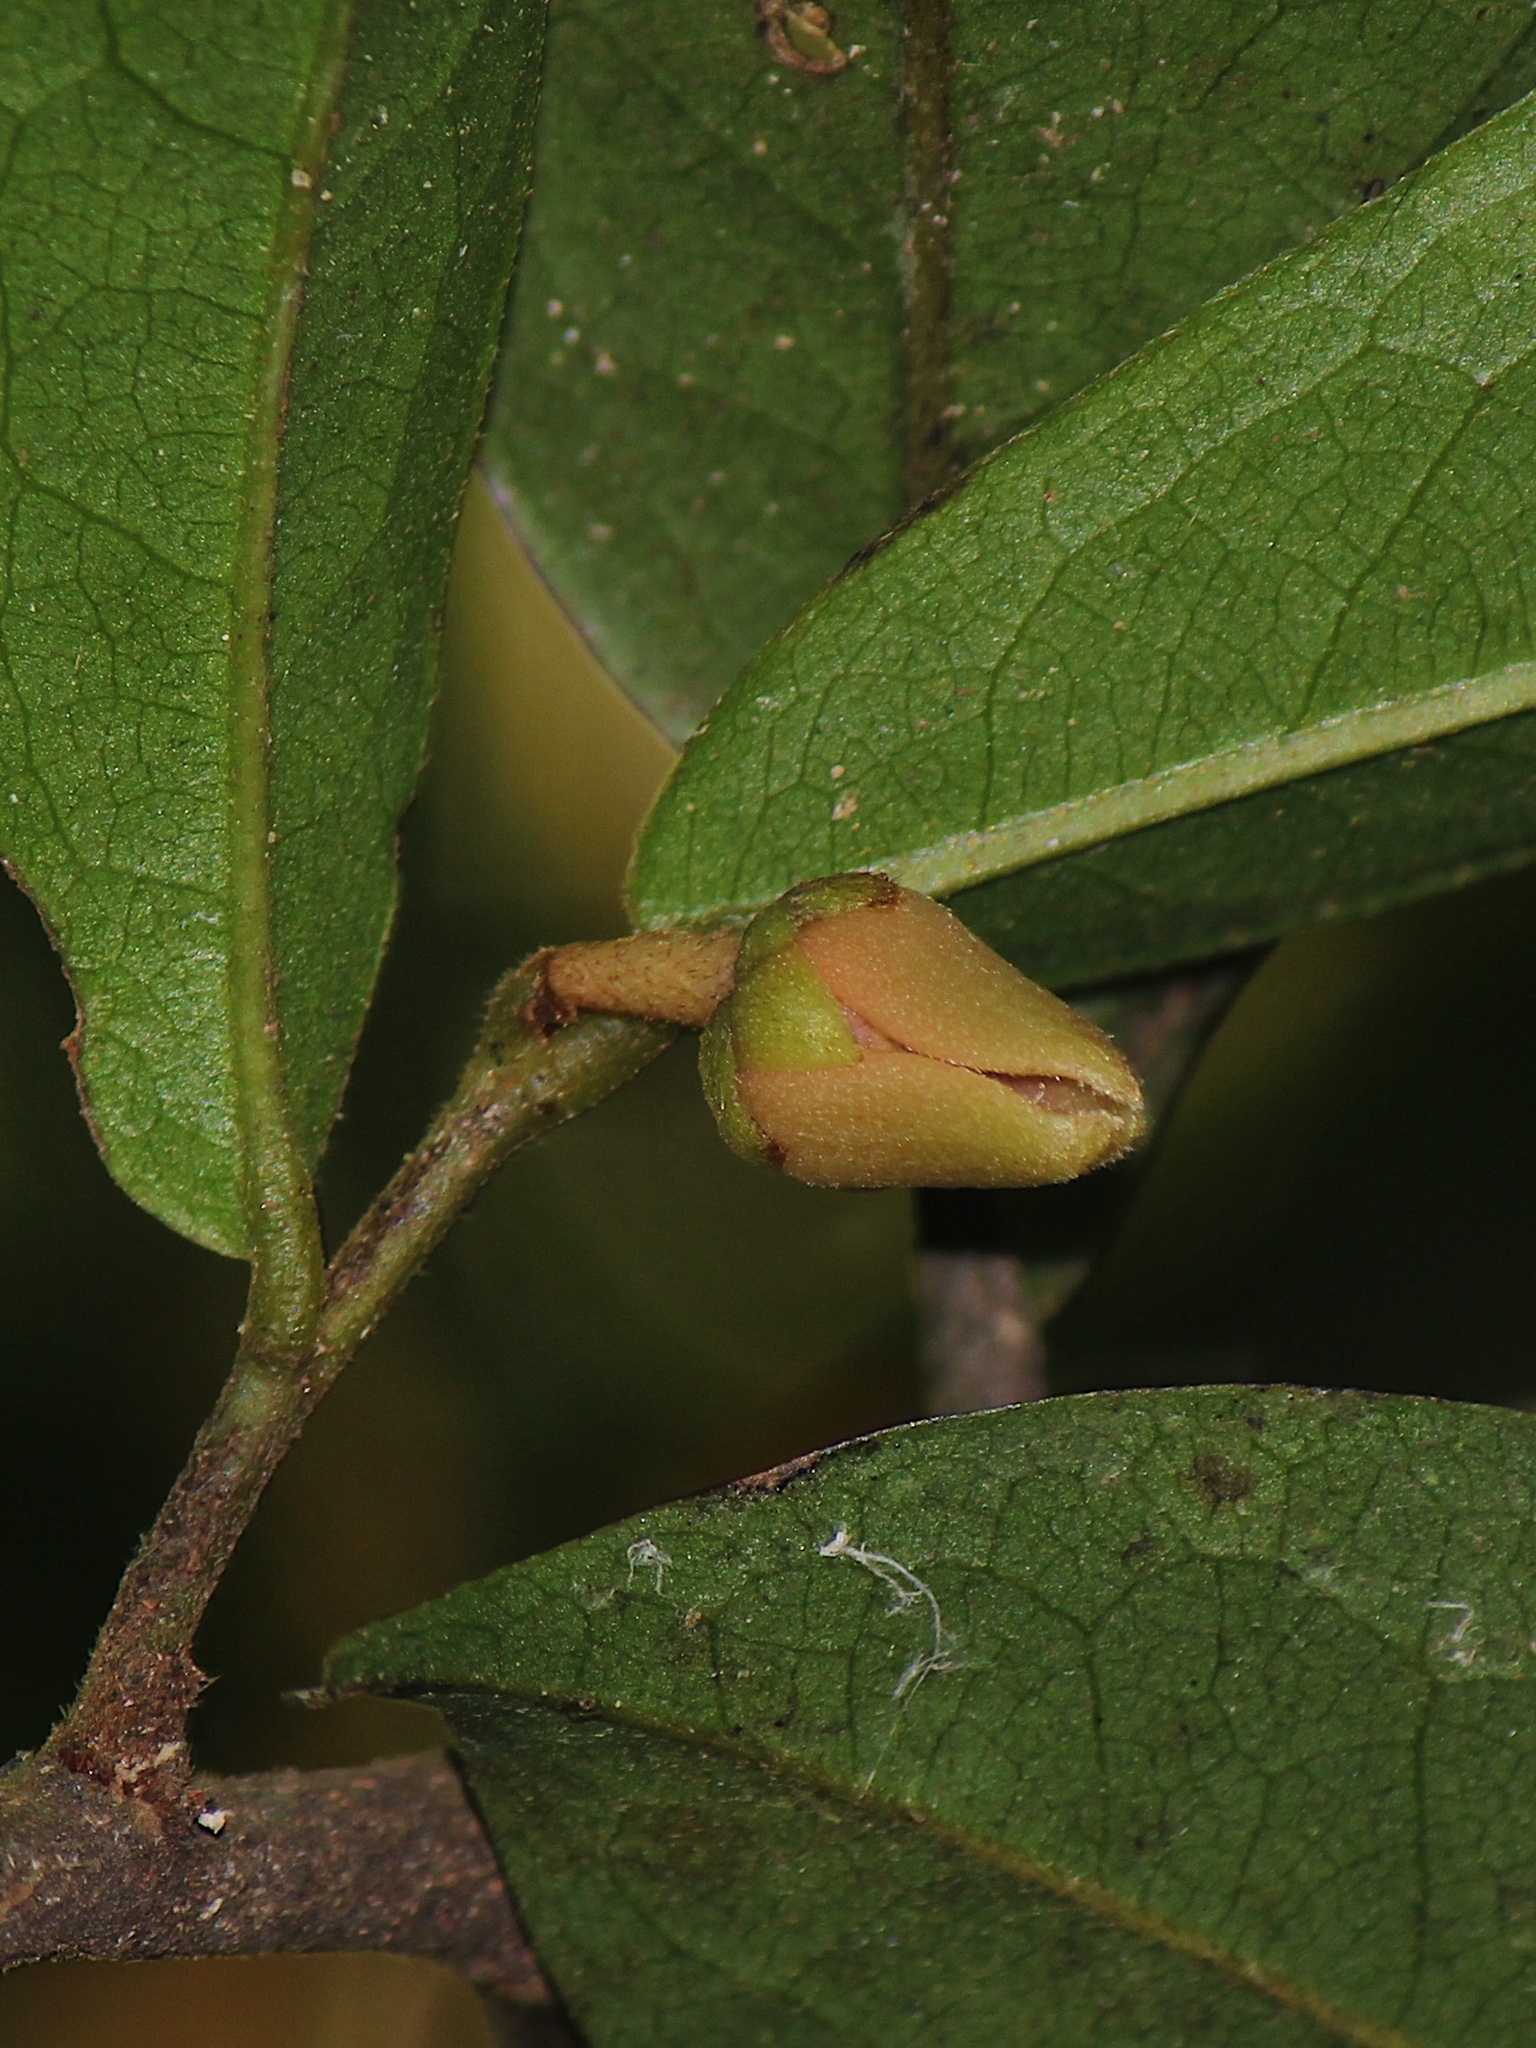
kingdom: Plantae
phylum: Tracheophyta
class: Magnoliopsida
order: Magnoliales
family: Annonaceae
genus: Polyalthia
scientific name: Polyalthia khaoyaiensis
